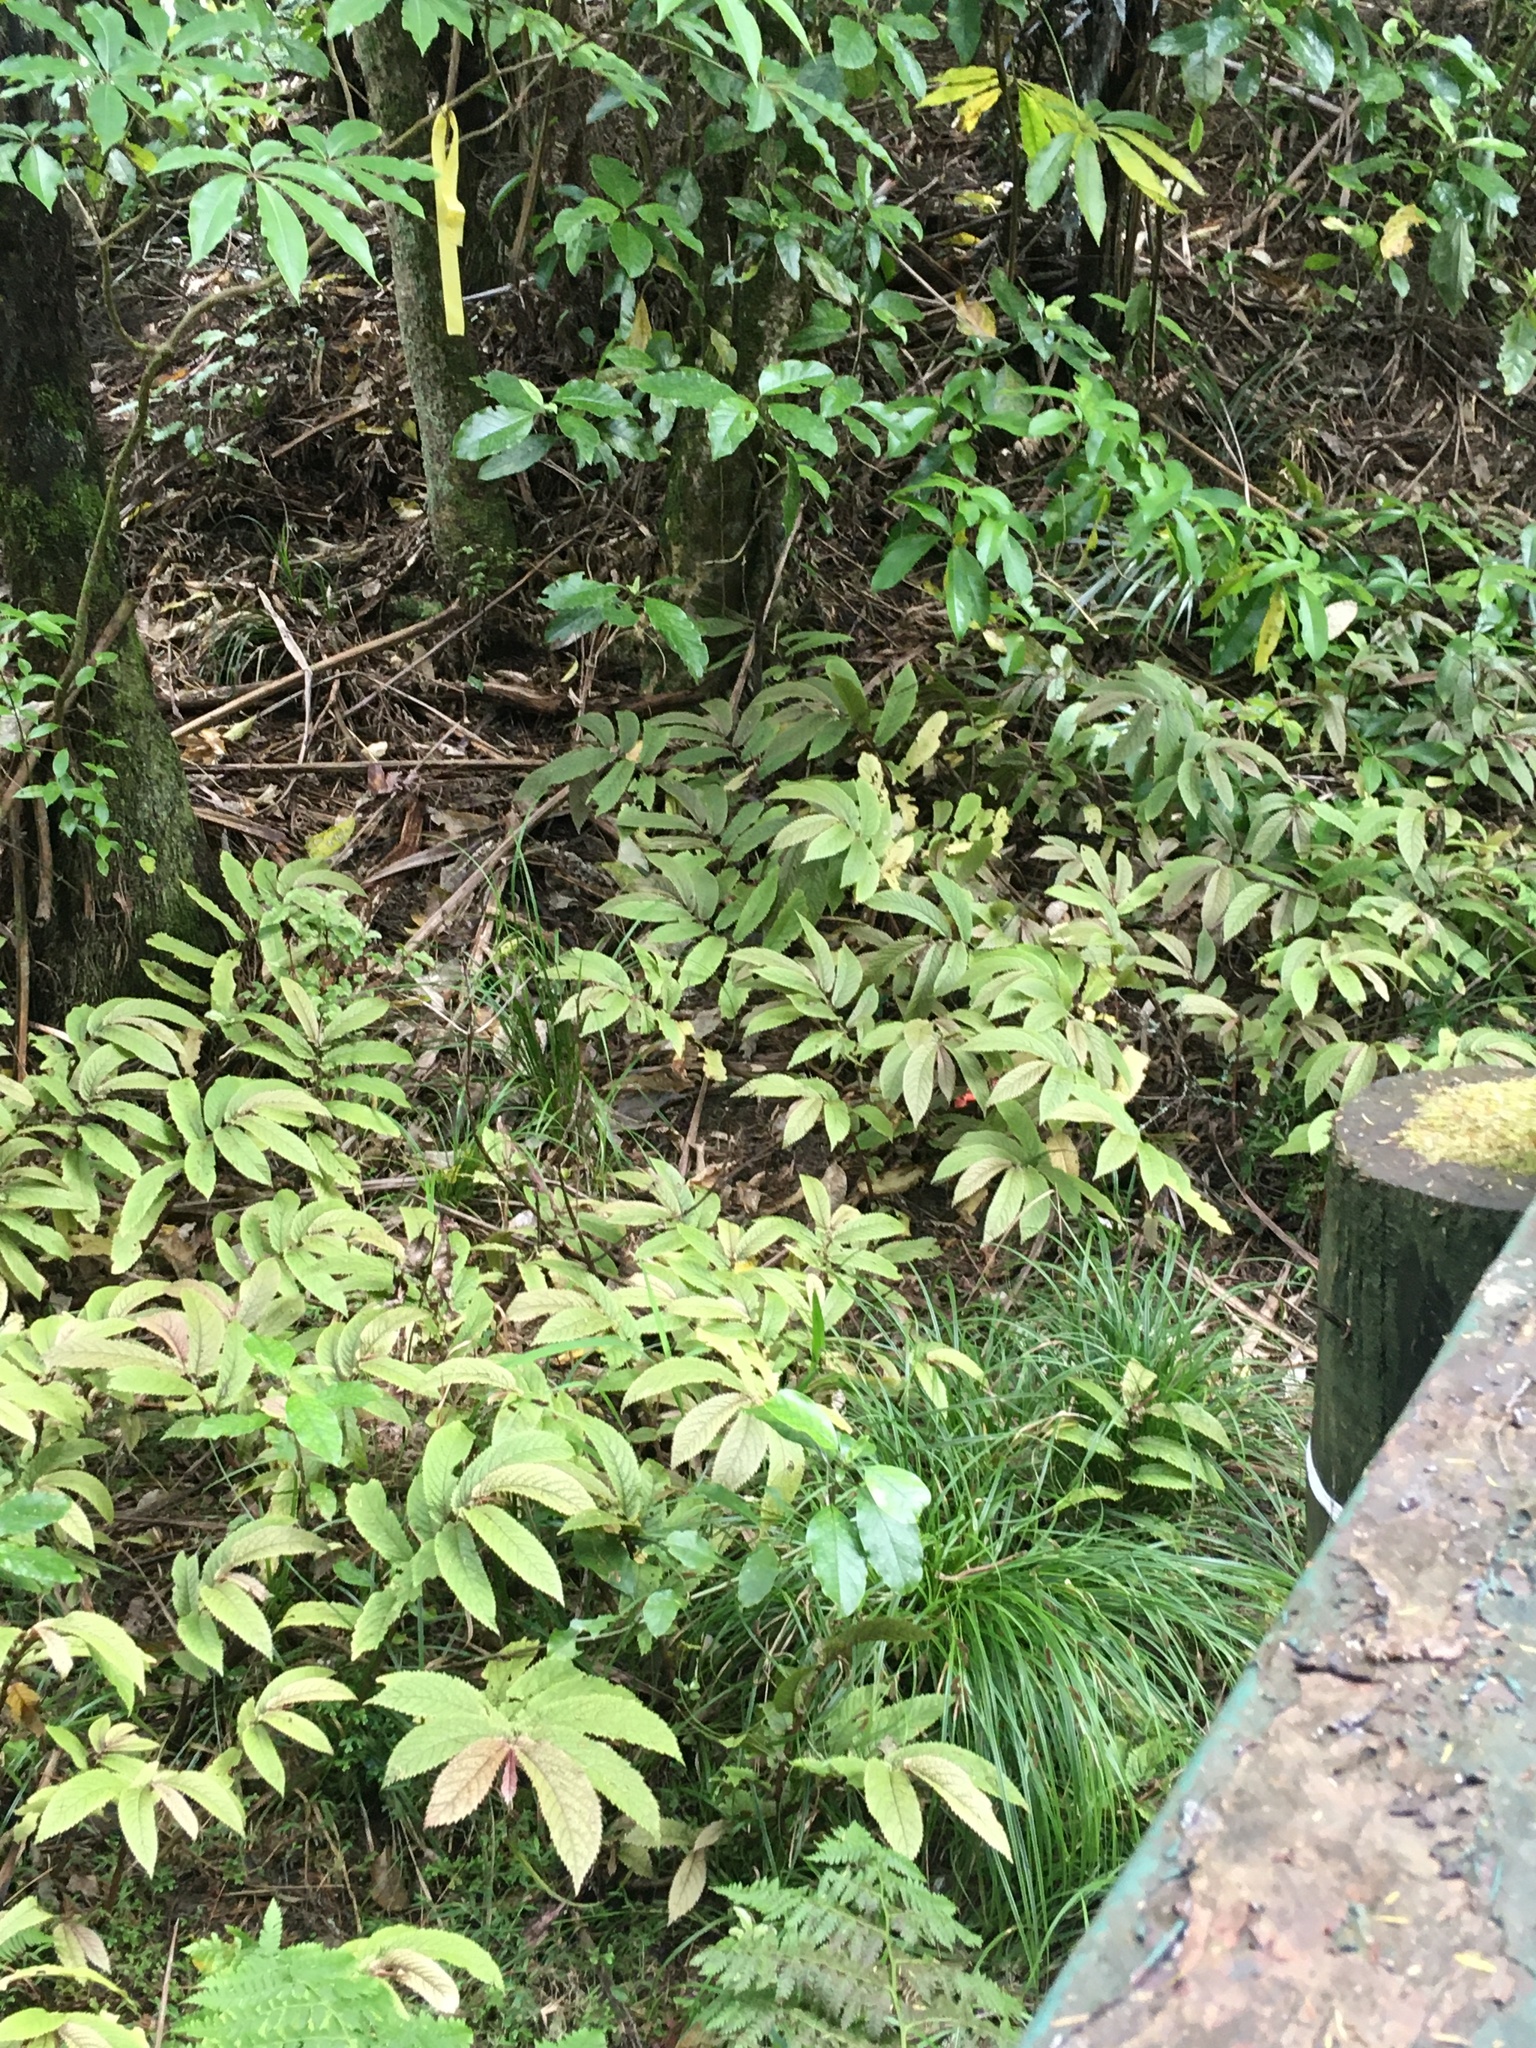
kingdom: Plantae
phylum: Tracheophyta
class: Magnoliopsida
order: Rosales
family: Urticaceae
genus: Elatostema
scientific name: Elatostema rugosum
